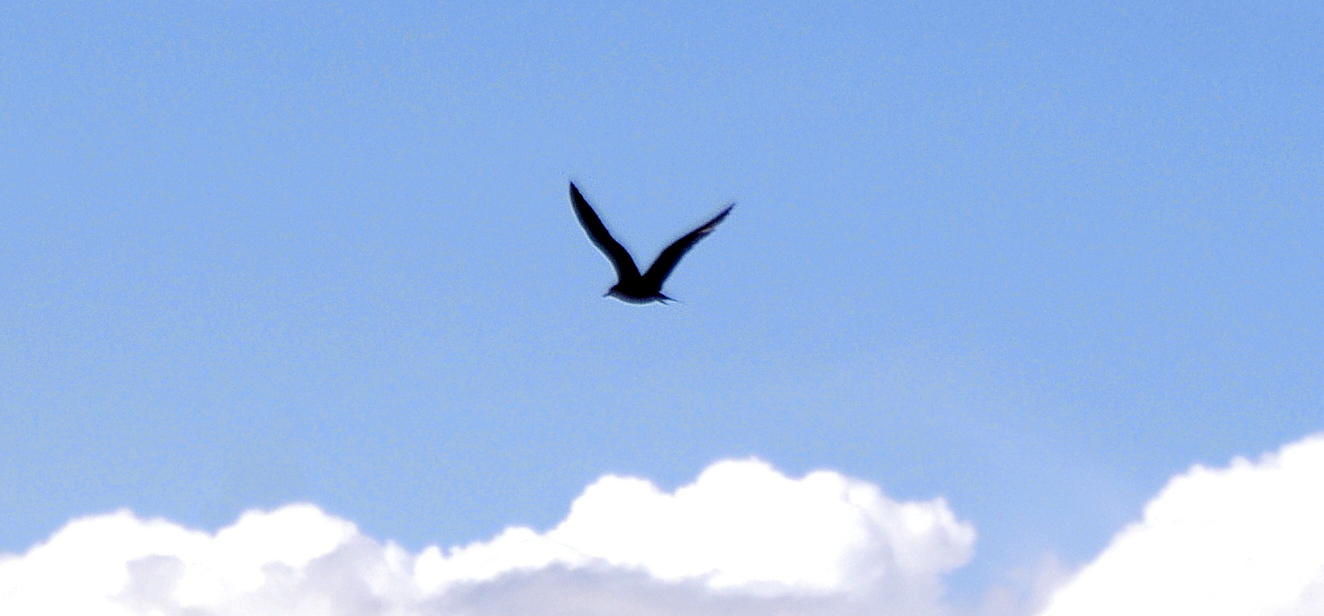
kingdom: Animalia
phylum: Chordata
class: Aves
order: Charadriiformes
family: Stercorariidae
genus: Stercorarius
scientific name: Stercorarius parasiticus
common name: Parasitic jaeger
